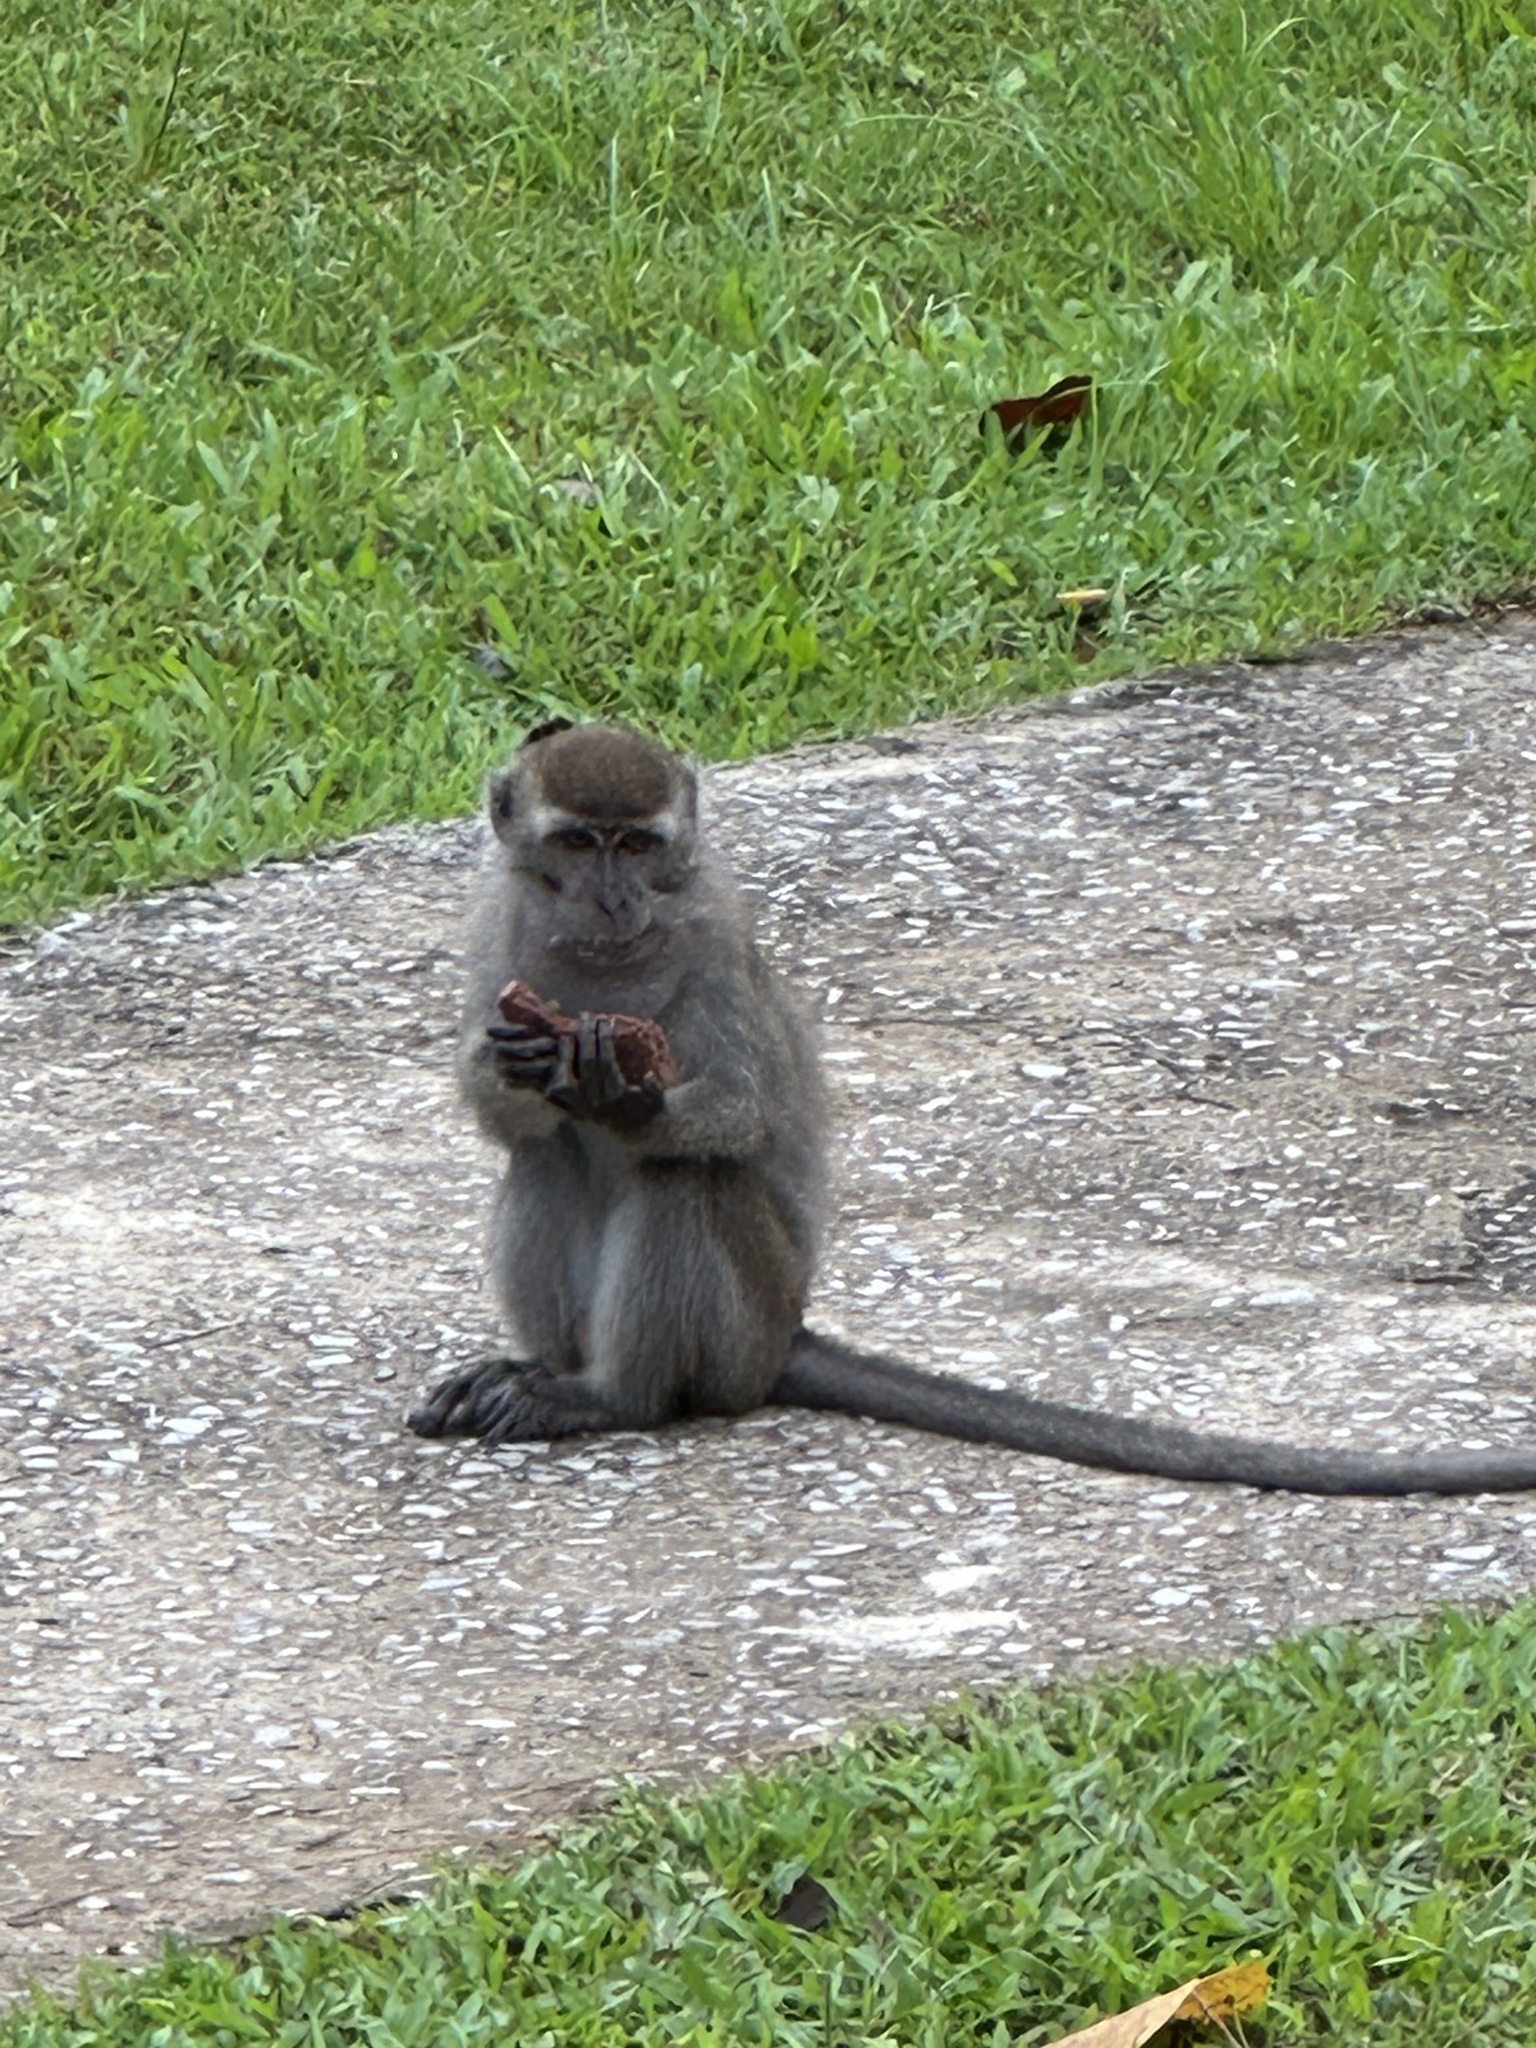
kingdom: Animalia
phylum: Chordata
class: Mammalia
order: Primates
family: Cercopithecidae
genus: Macaca
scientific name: Macaca fascicularis
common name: Crab-eating macaque
